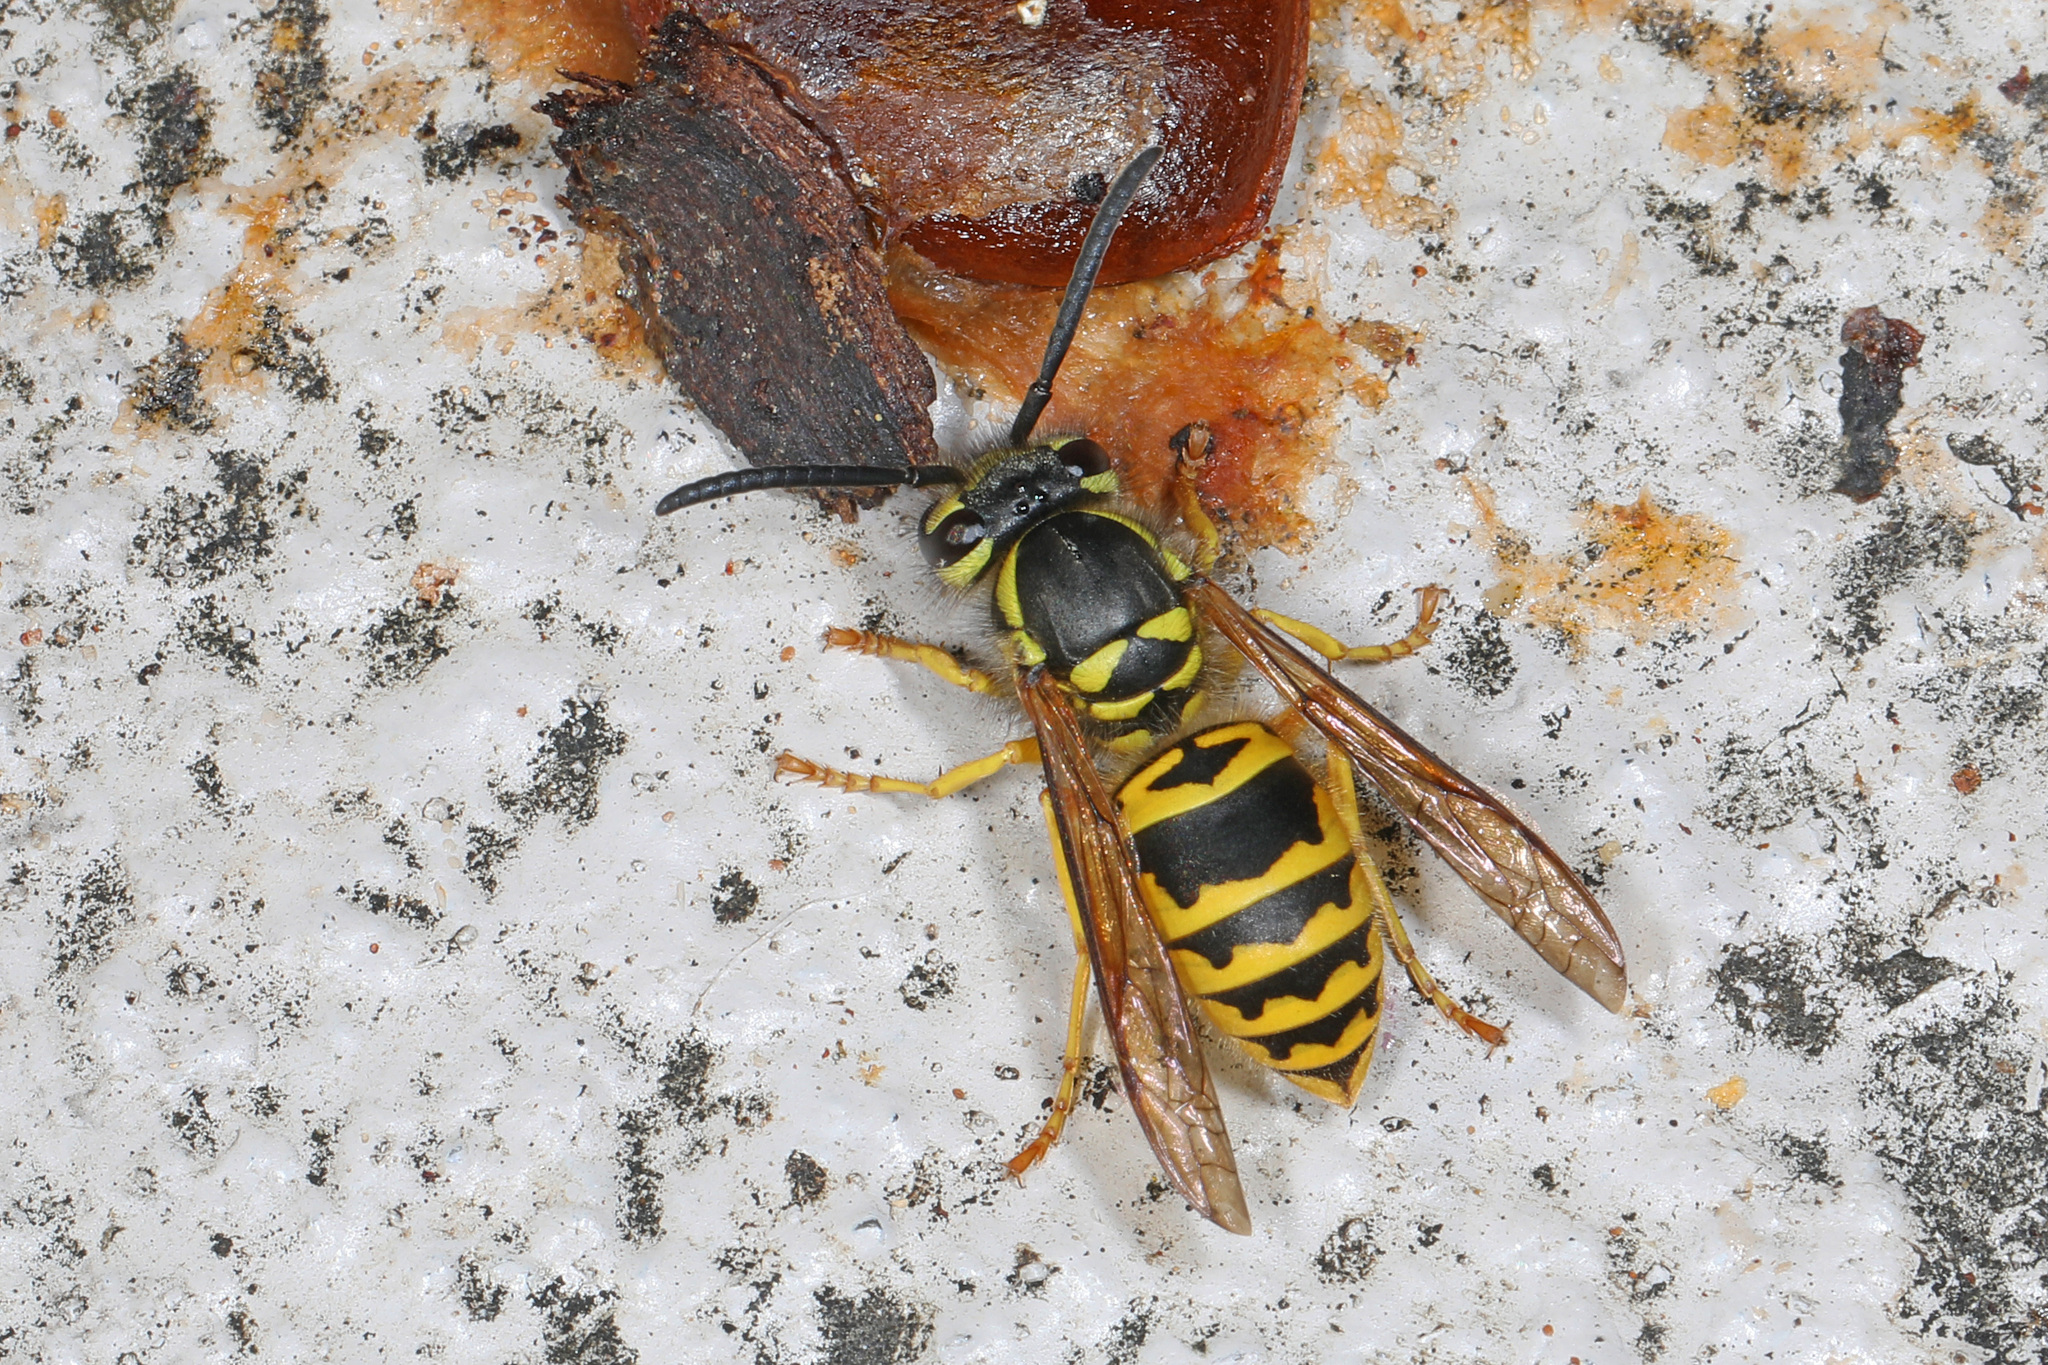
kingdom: Animalia
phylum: Arthropoda
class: Insecta
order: Hymenoptera
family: Vespidae
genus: Vespula
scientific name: Vespula maculifrons
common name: Eastern yellowjacket
